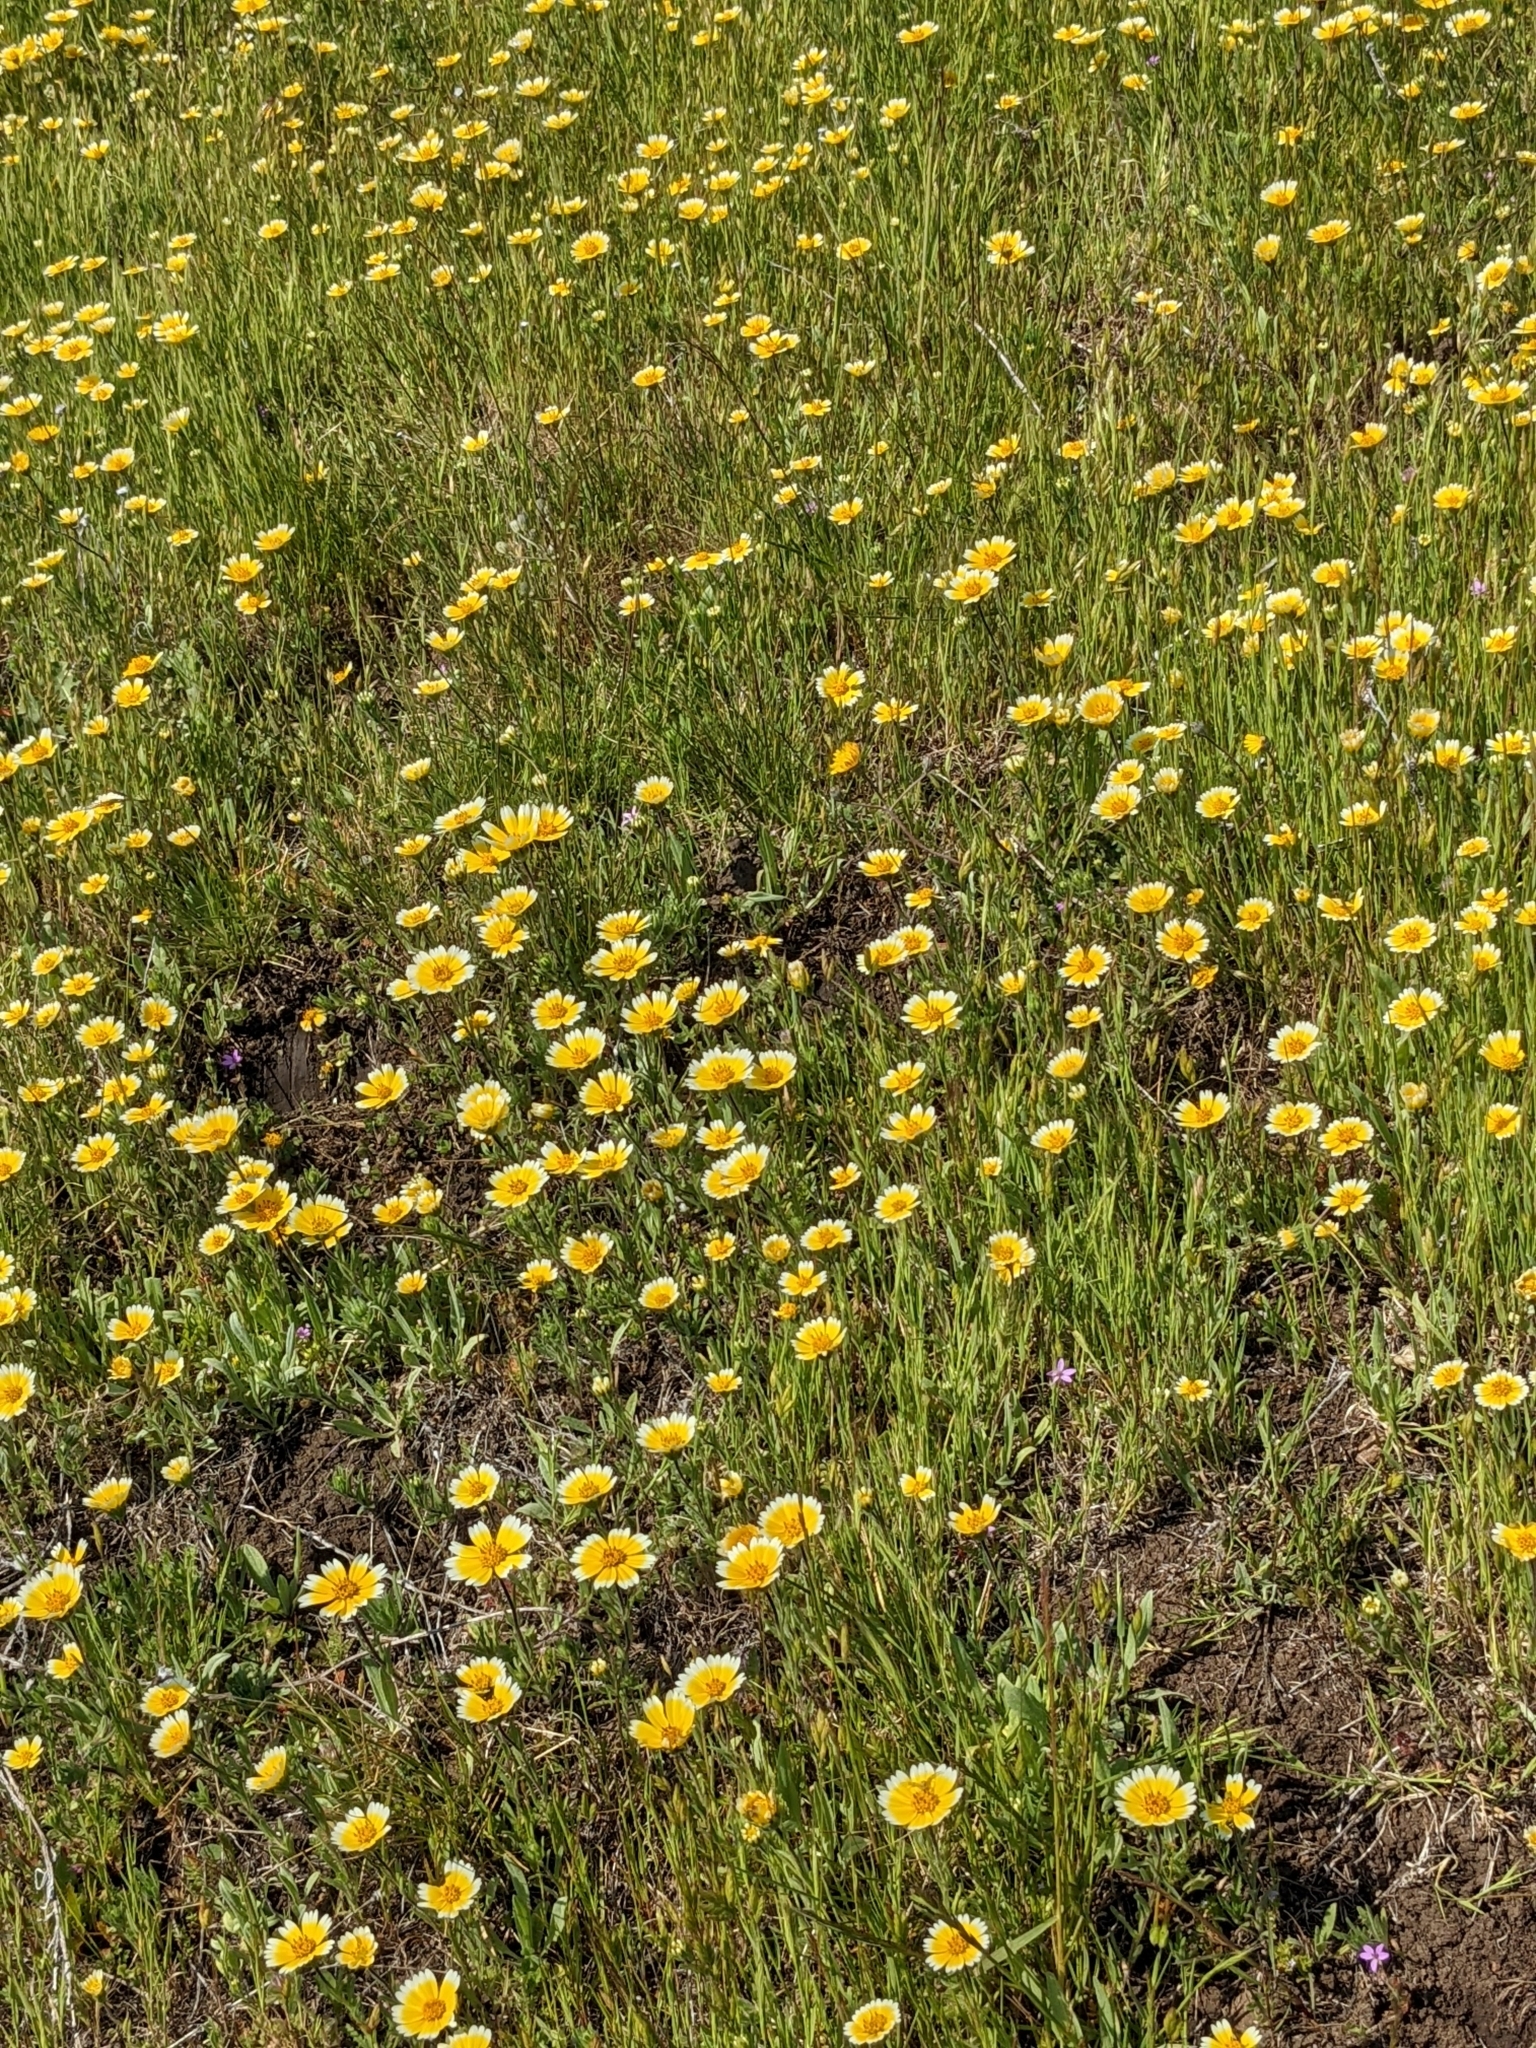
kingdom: Plantae
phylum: Tracheophyta
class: Magnoliopsida
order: Asterales
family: Asteraceae
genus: Layia
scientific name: Layia platyglossa
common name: Tidy-tips
